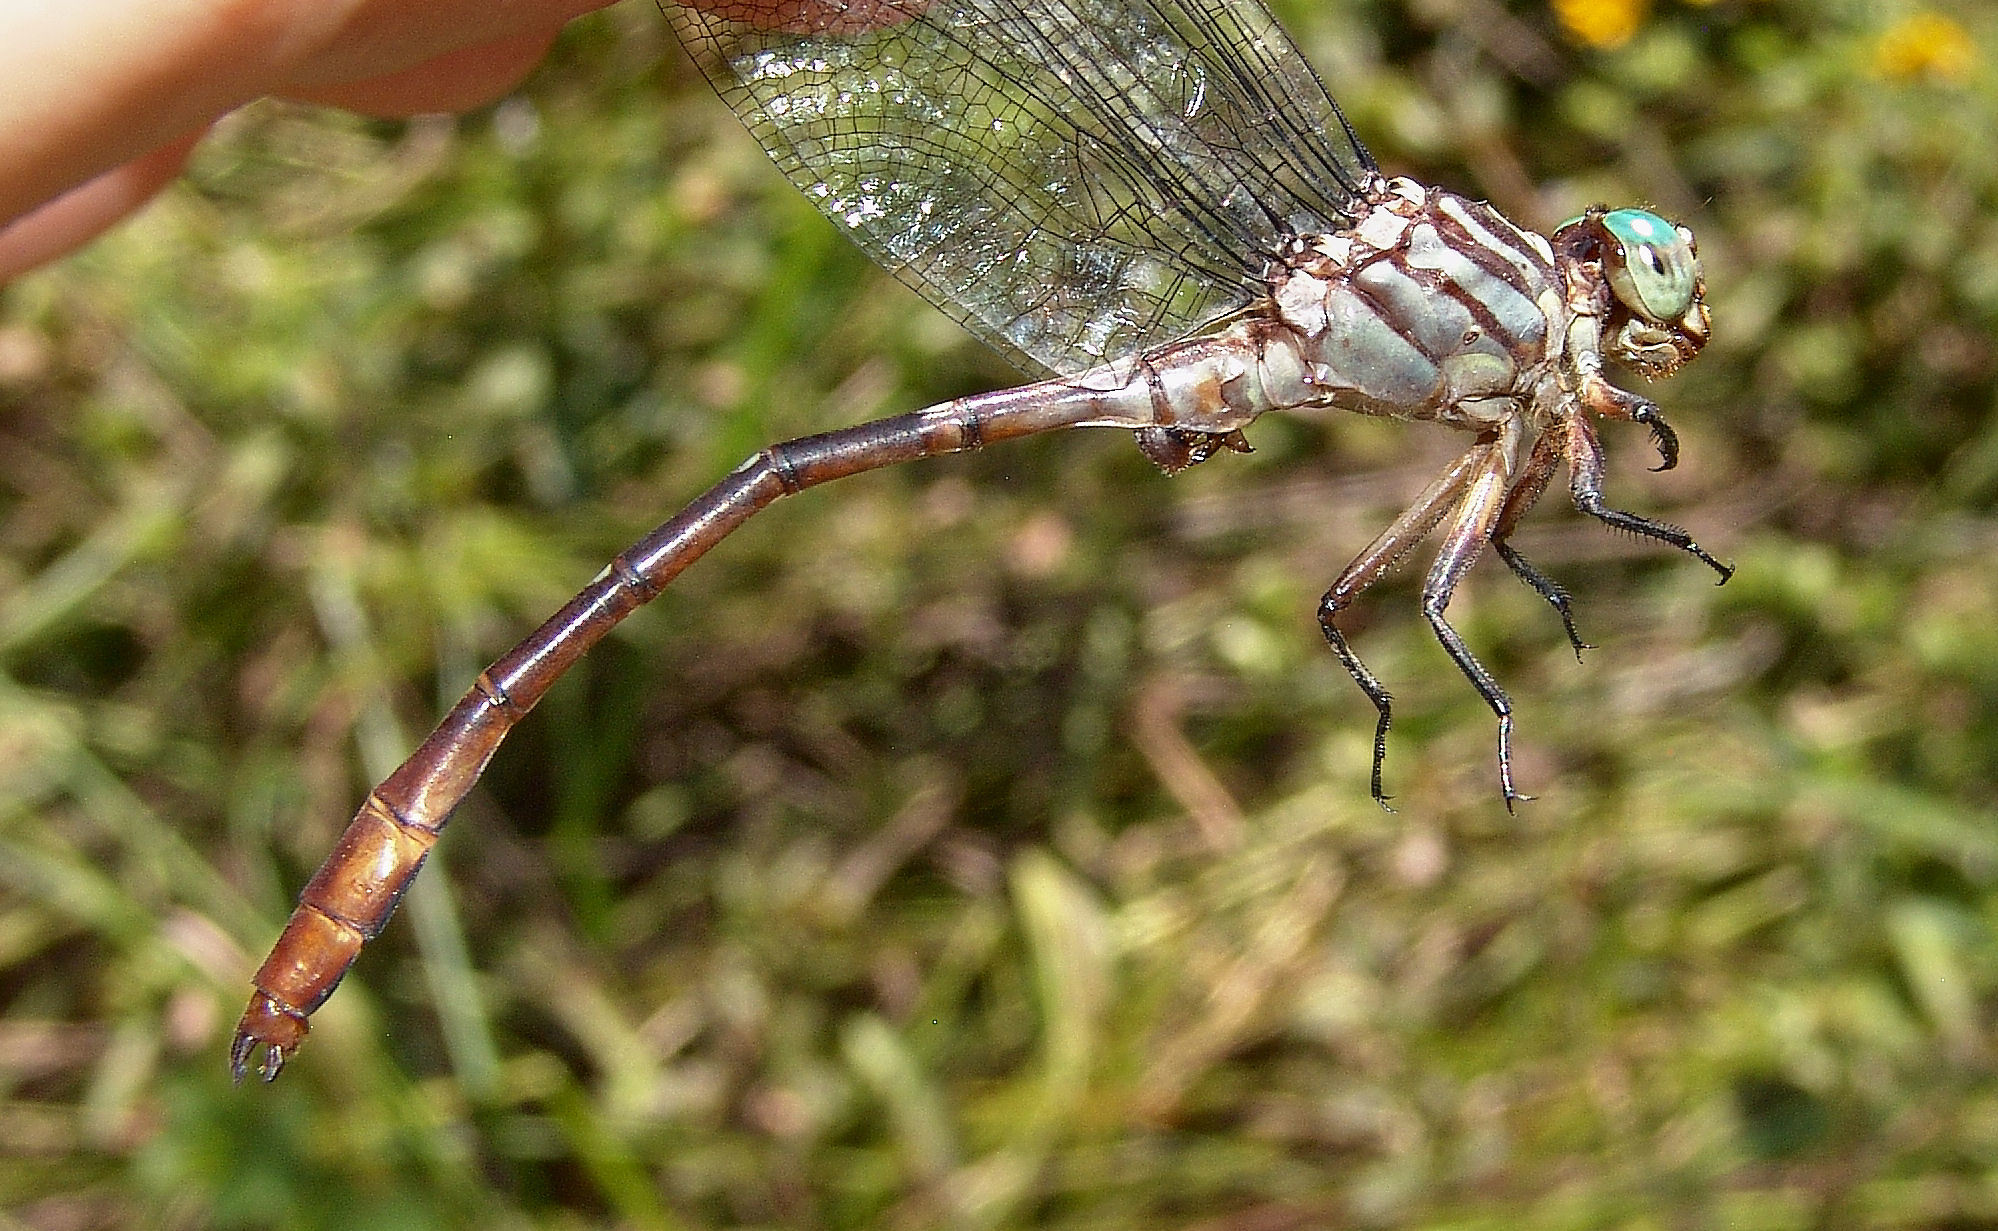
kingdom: Animalia
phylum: Arthropoda
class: Insecta
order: Odonata
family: Gomphidae
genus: Stylurus
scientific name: Stylurus plagiatus
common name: Russet-tipped clubtail
